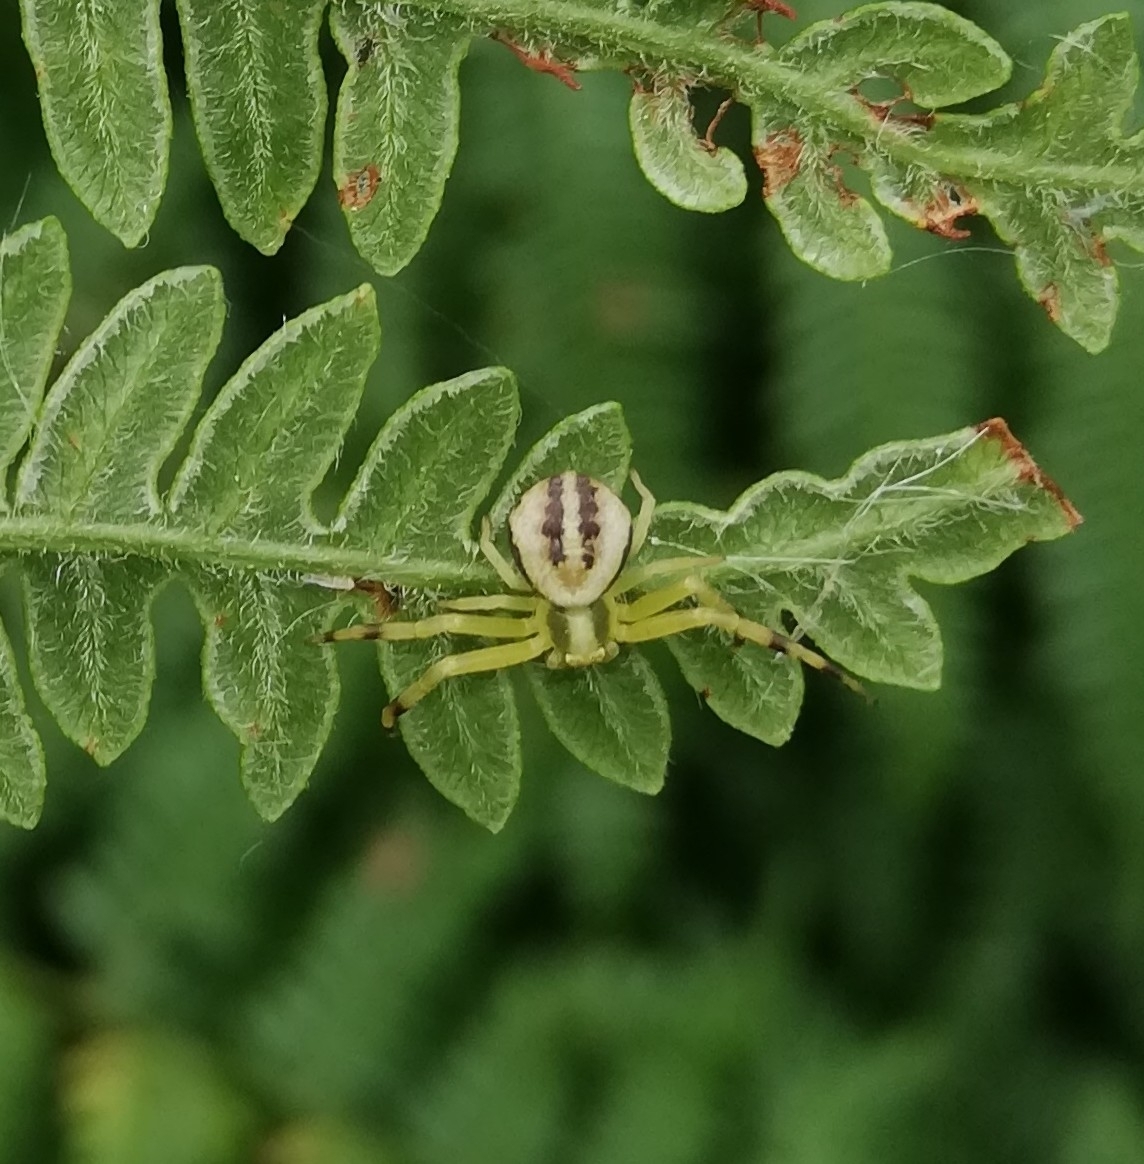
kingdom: Animalia
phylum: Arthropoda
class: Arachnida
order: Araneae
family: Thomisidae
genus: Misumena
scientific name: Misumena vatia
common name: Goldenrod crab spider
